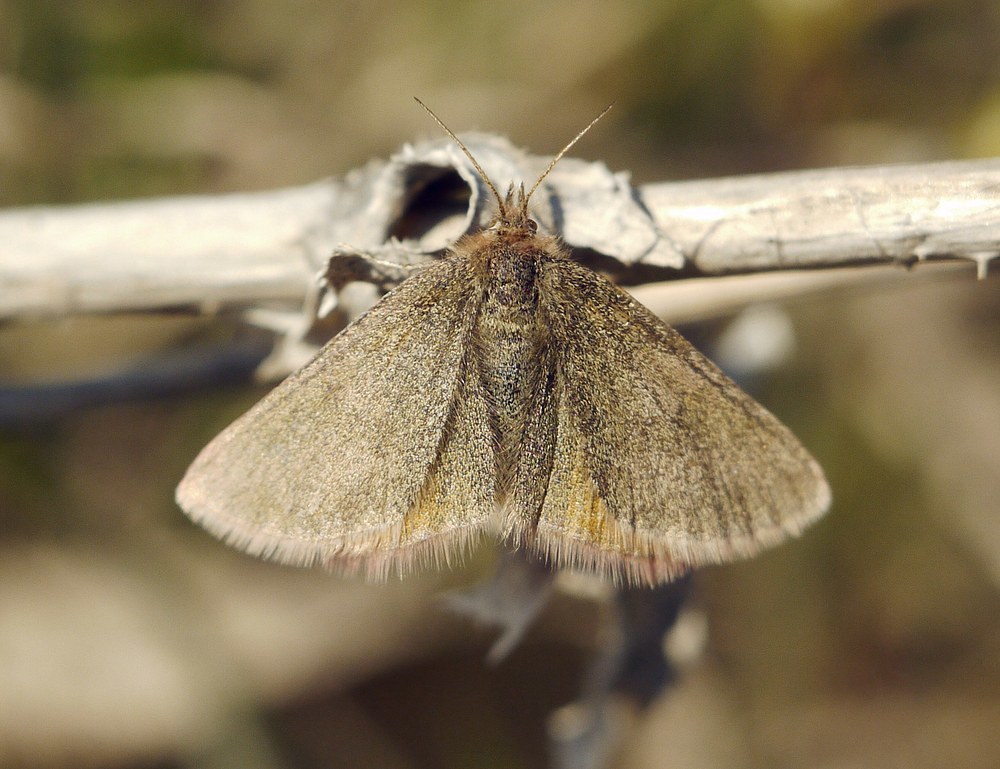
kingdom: Animalia
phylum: Arthropoda
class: Insecta
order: Lepidoptera
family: Geometridae
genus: Lythria
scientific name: Lythria purpuraria
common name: Purple-barred yellow
